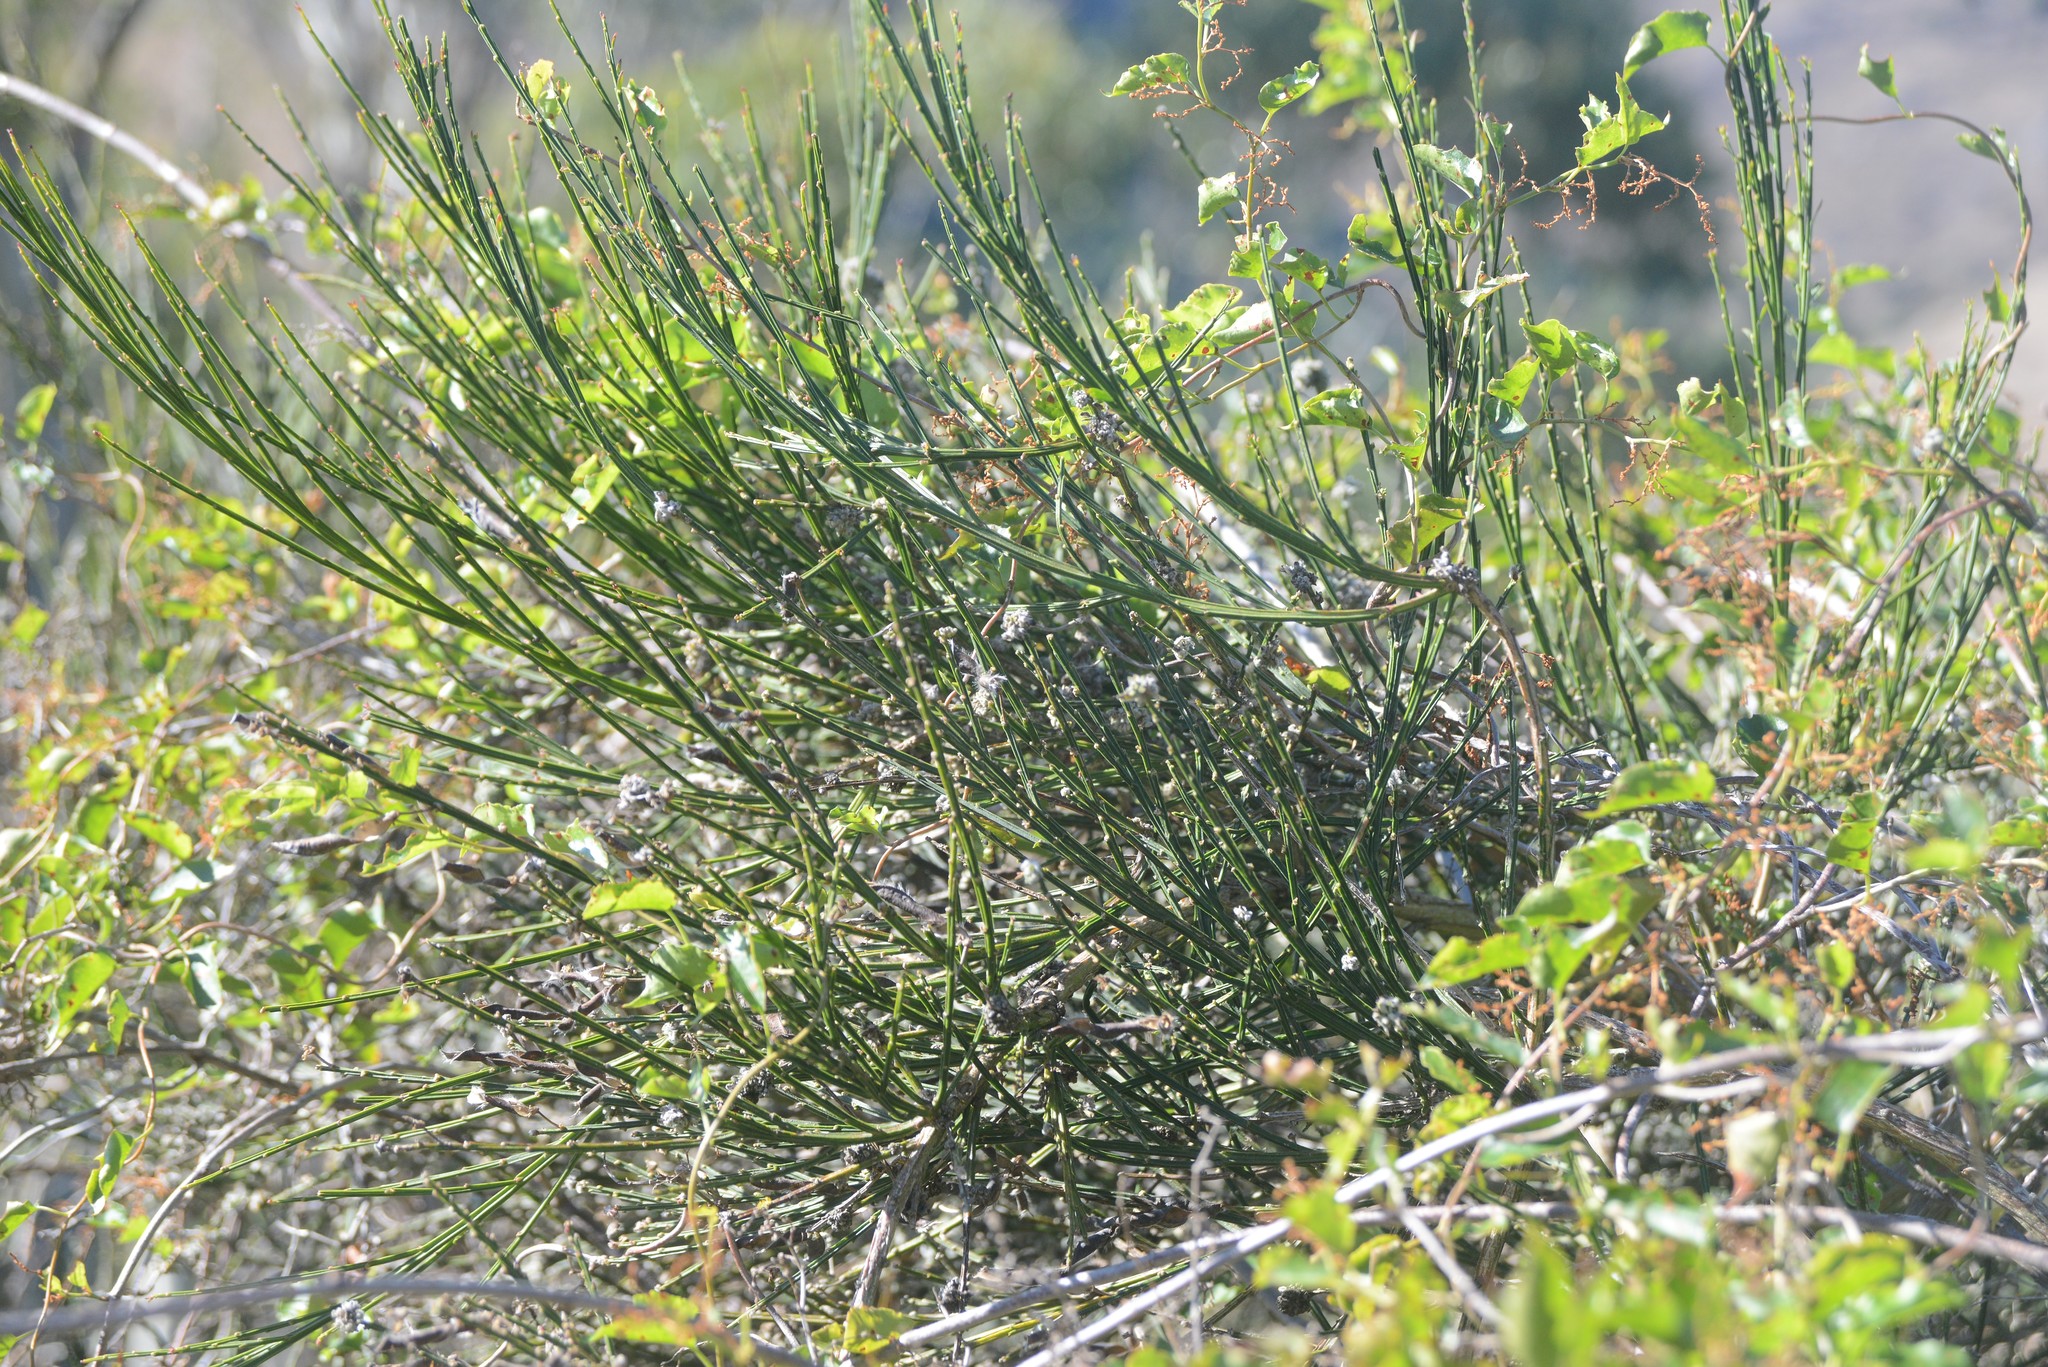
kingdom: Animalia
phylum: Arthropoda
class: Arachnida
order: Trombidiformes
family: Eriophyidae
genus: Aceria
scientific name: Aceria genistae
